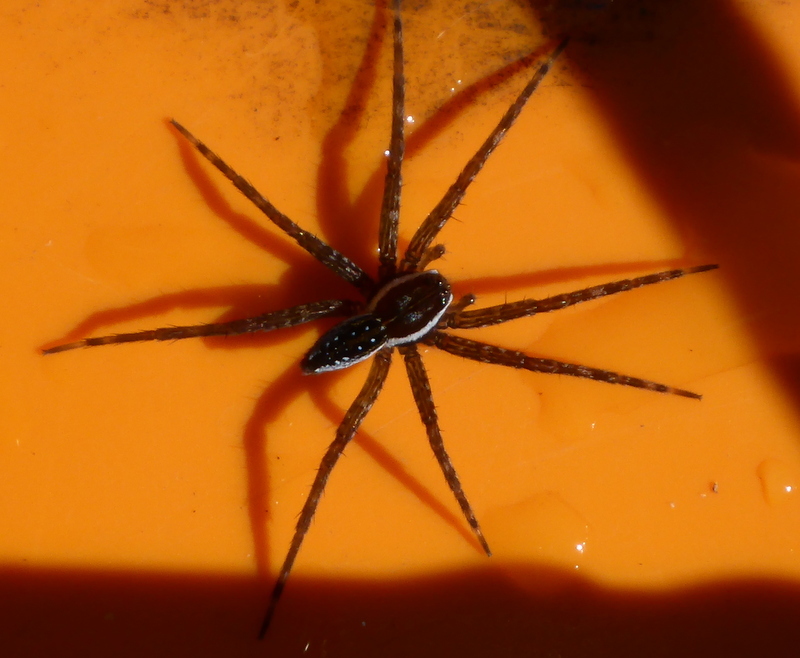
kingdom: Animalia
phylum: Arthropoda
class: Arachnida
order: Araneae
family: Pisauridae
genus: Dolomedes
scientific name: Dolomedes triton
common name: Six-spotted fishing spider
